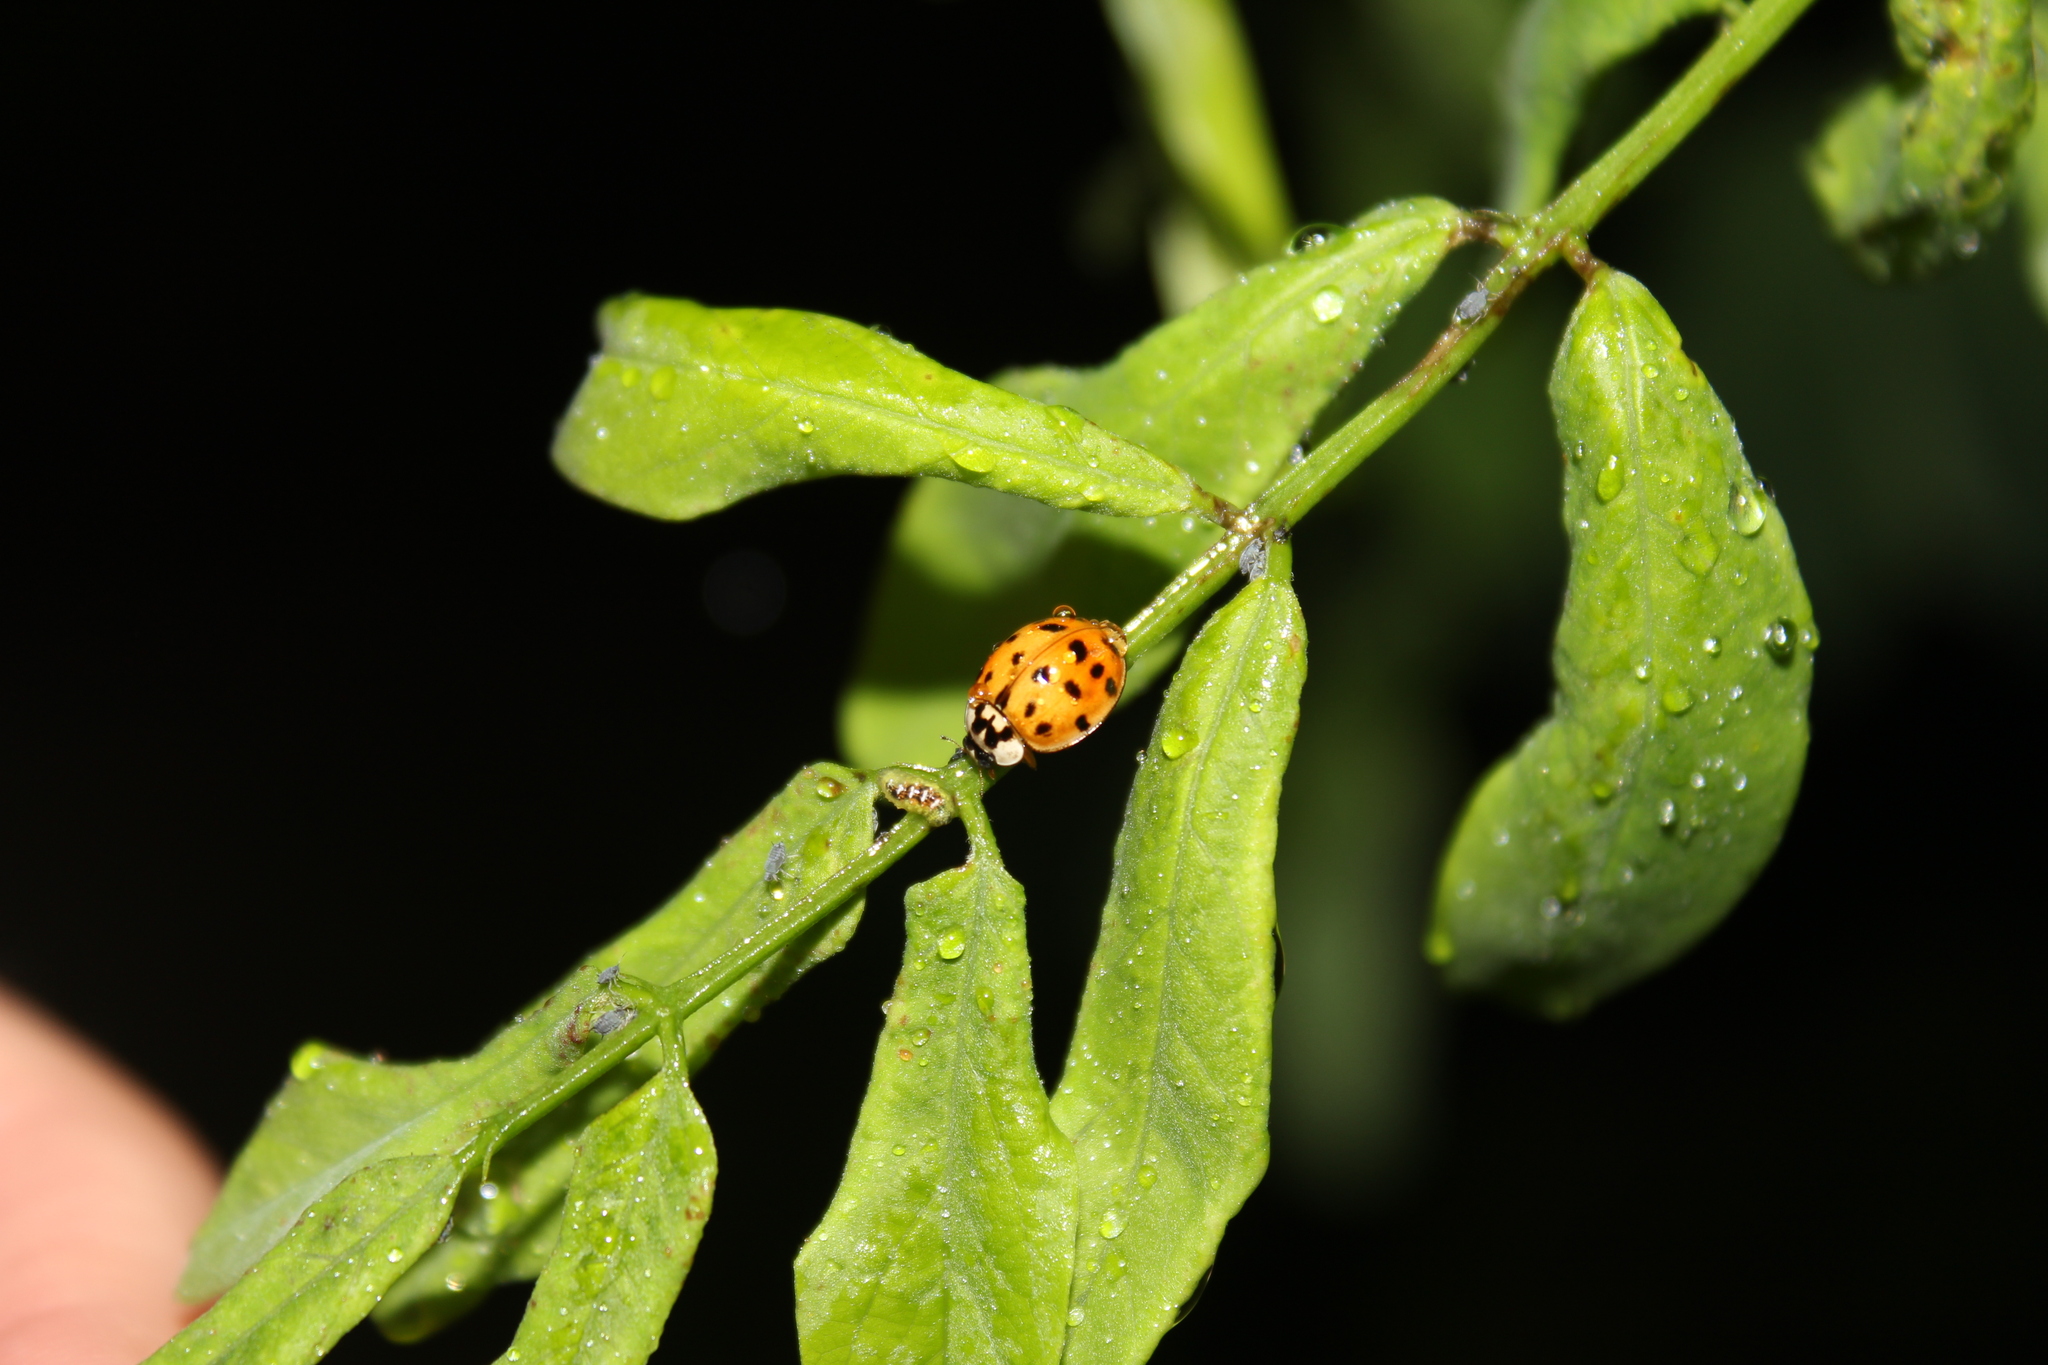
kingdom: Animalia
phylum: Arthropoda
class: Insecta
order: Coleoptera
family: Coccinellidae
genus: Harmonia
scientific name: Harmonia axyridis
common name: Harlequin ladybird
